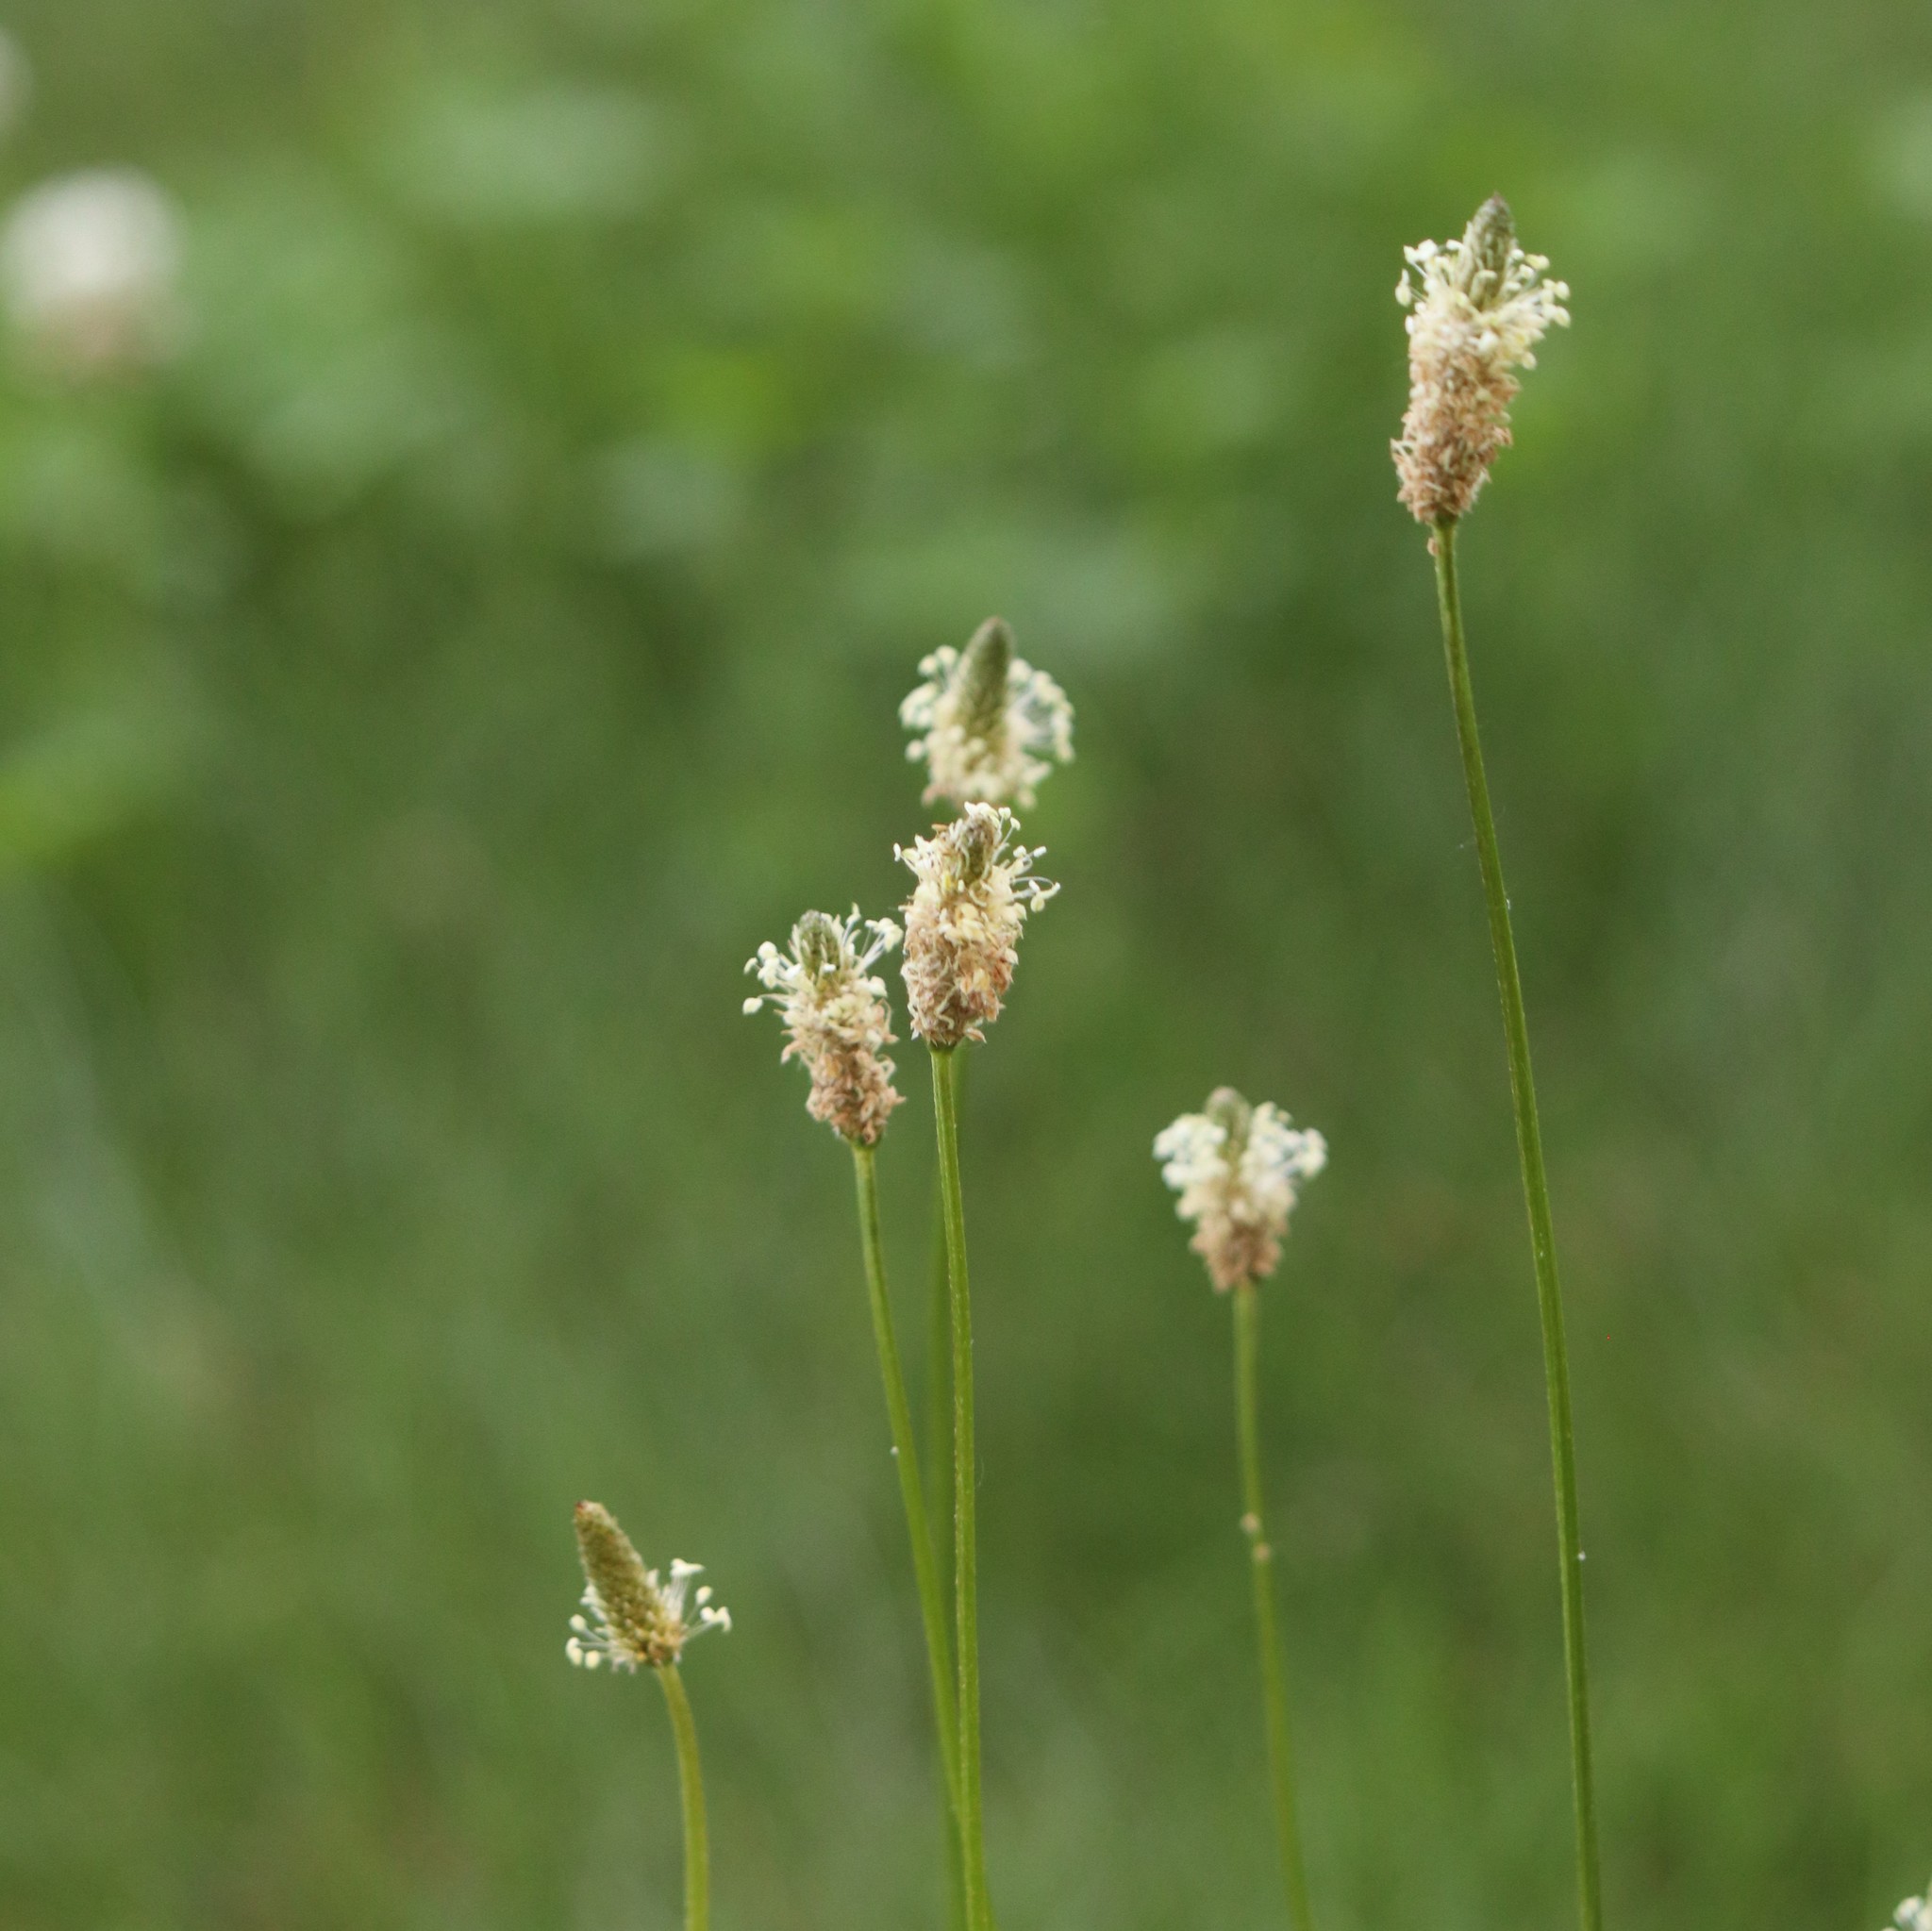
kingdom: Plantae
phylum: Tracheophyta
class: Magnoliopsida
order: Lamiales
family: Plantaginaceae
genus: Plantago
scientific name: Plantago lanceolata
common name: Ribwort plantain
